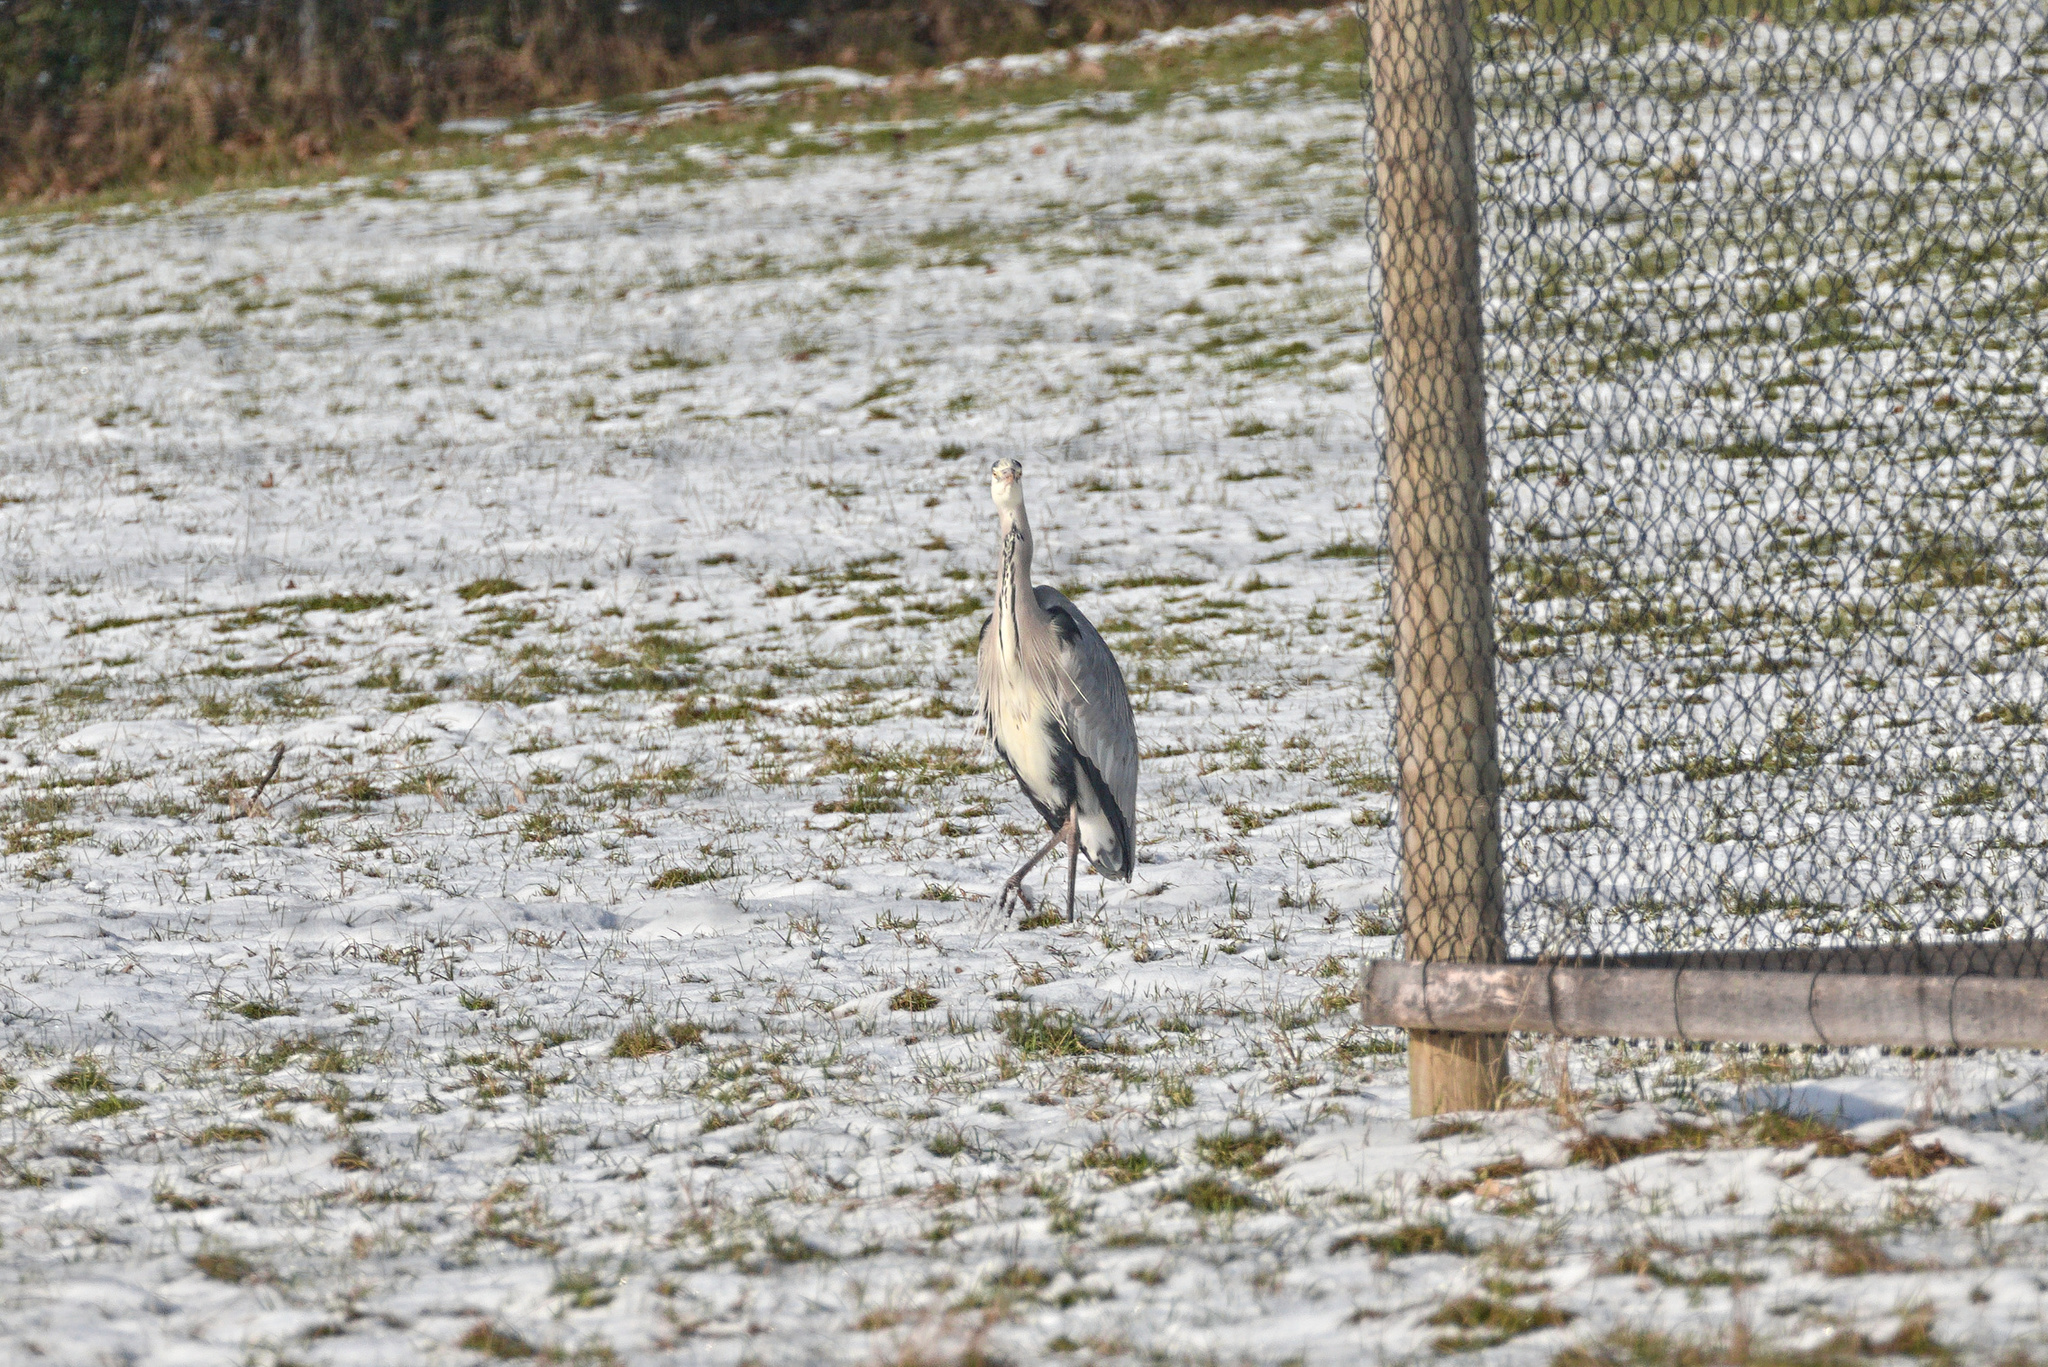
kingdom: Animalia
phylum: Chordata
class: Aves
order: Pelecaniformes
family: Ardeidae
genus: Ardea
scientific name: Ardea cinerea
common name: Grey heron
